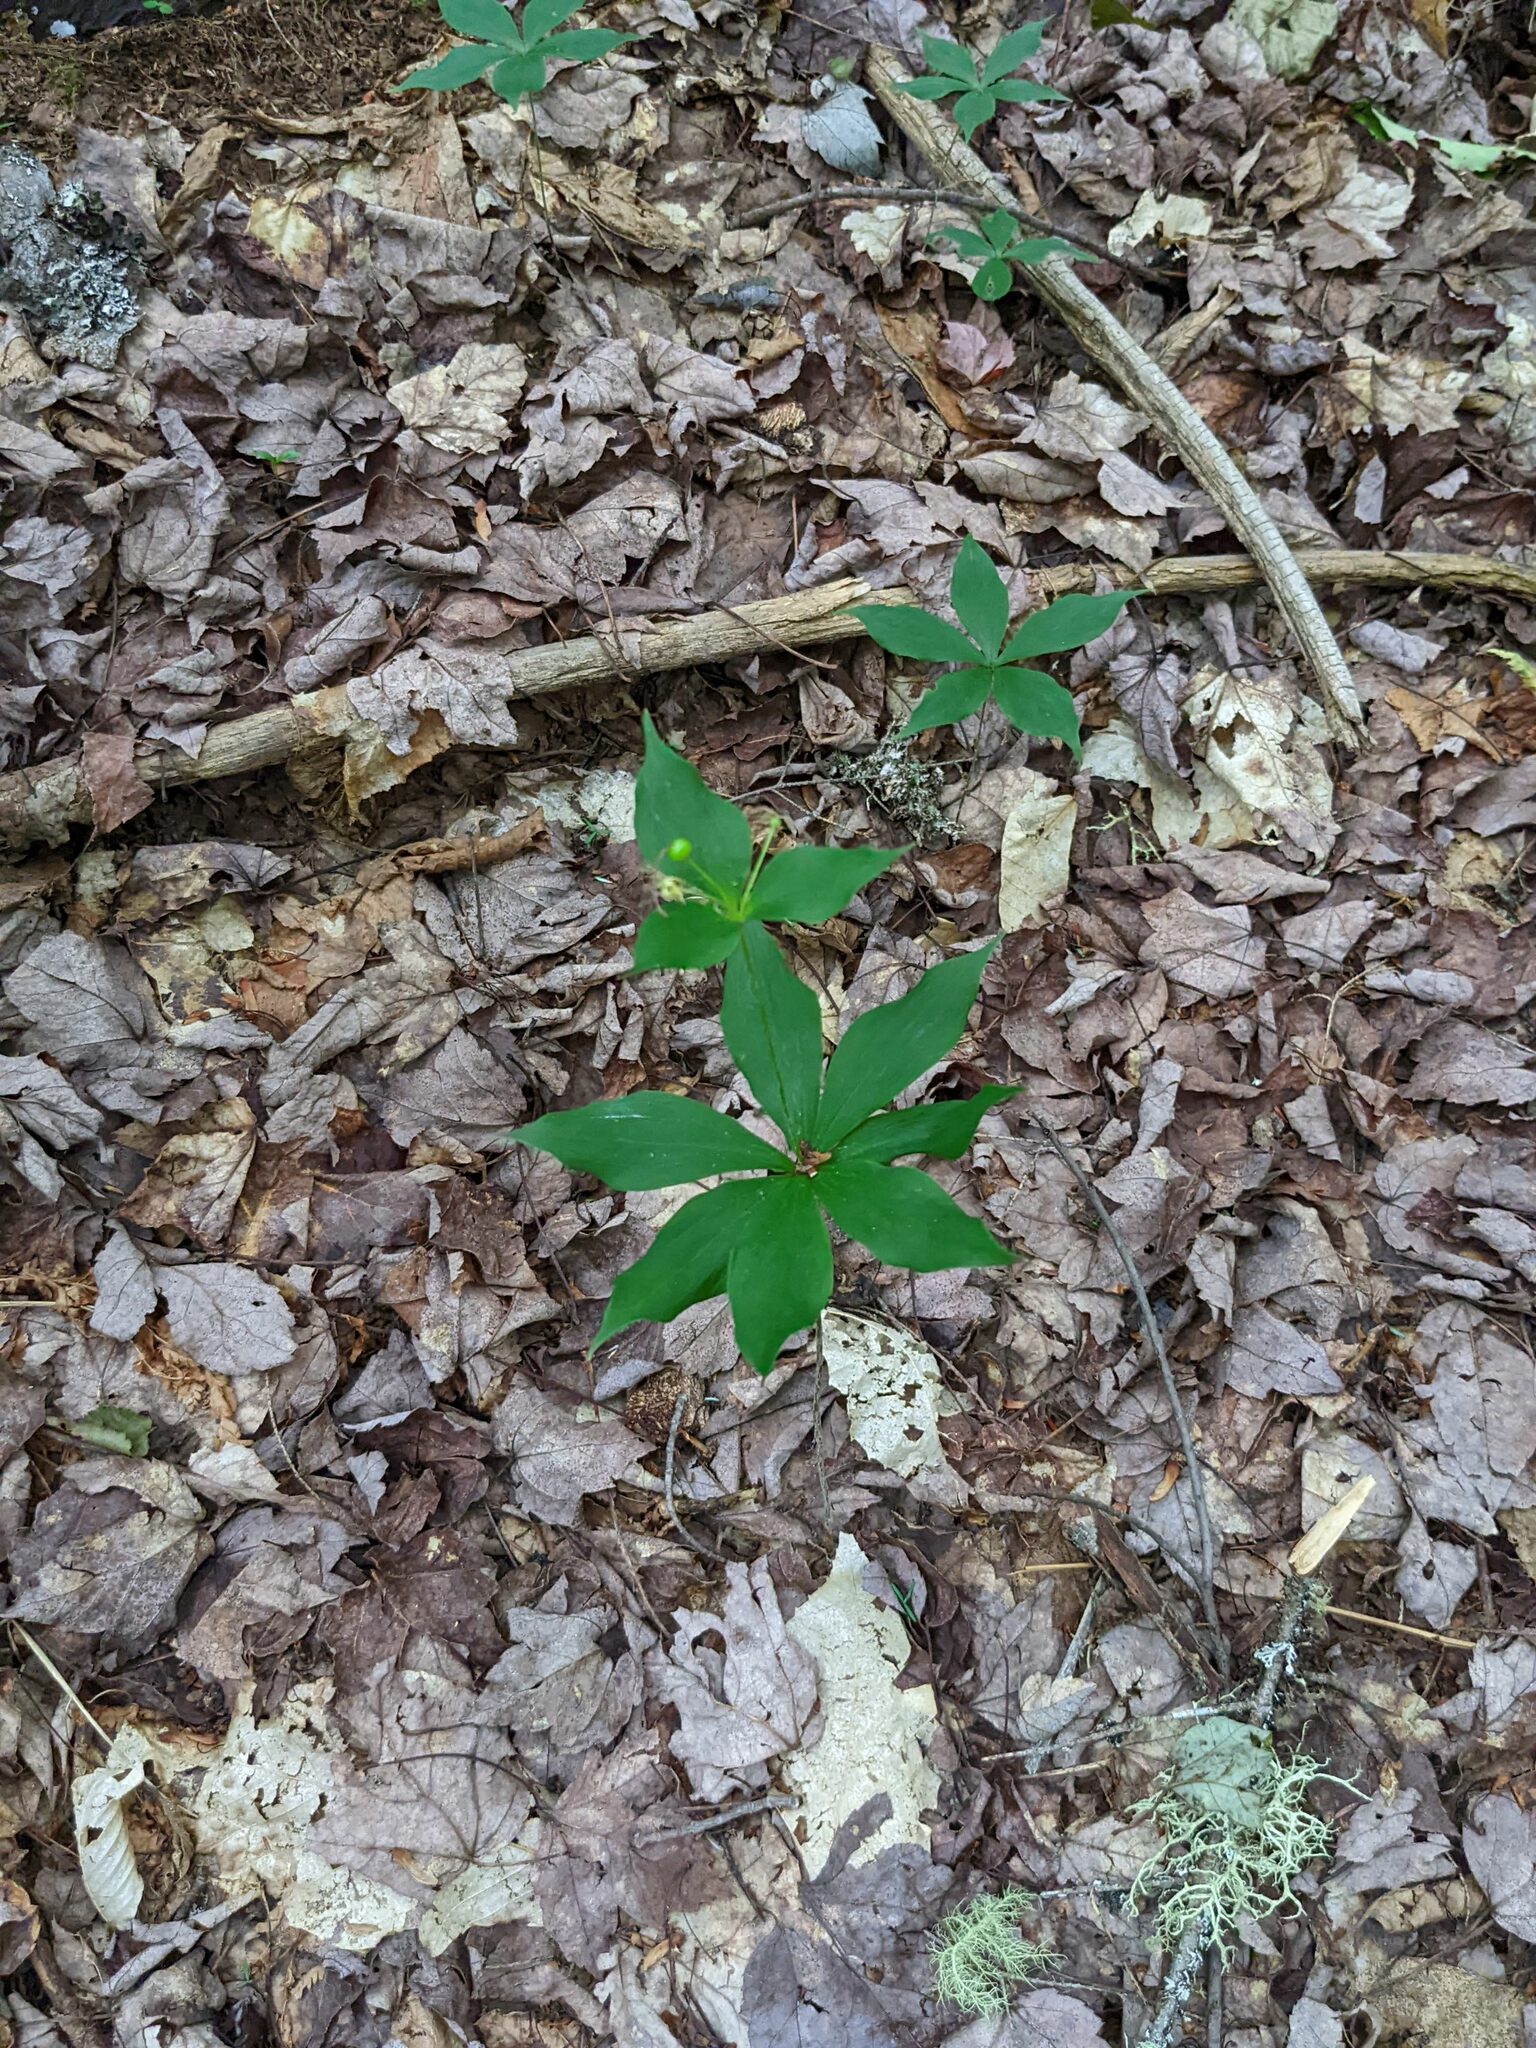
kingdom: Plantae
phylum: Tracheophyta
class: Liliopsida
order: Liliales
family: Liliaceae
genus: Medeola
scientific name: Medeola virginiana
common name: Indian cucumber-root
